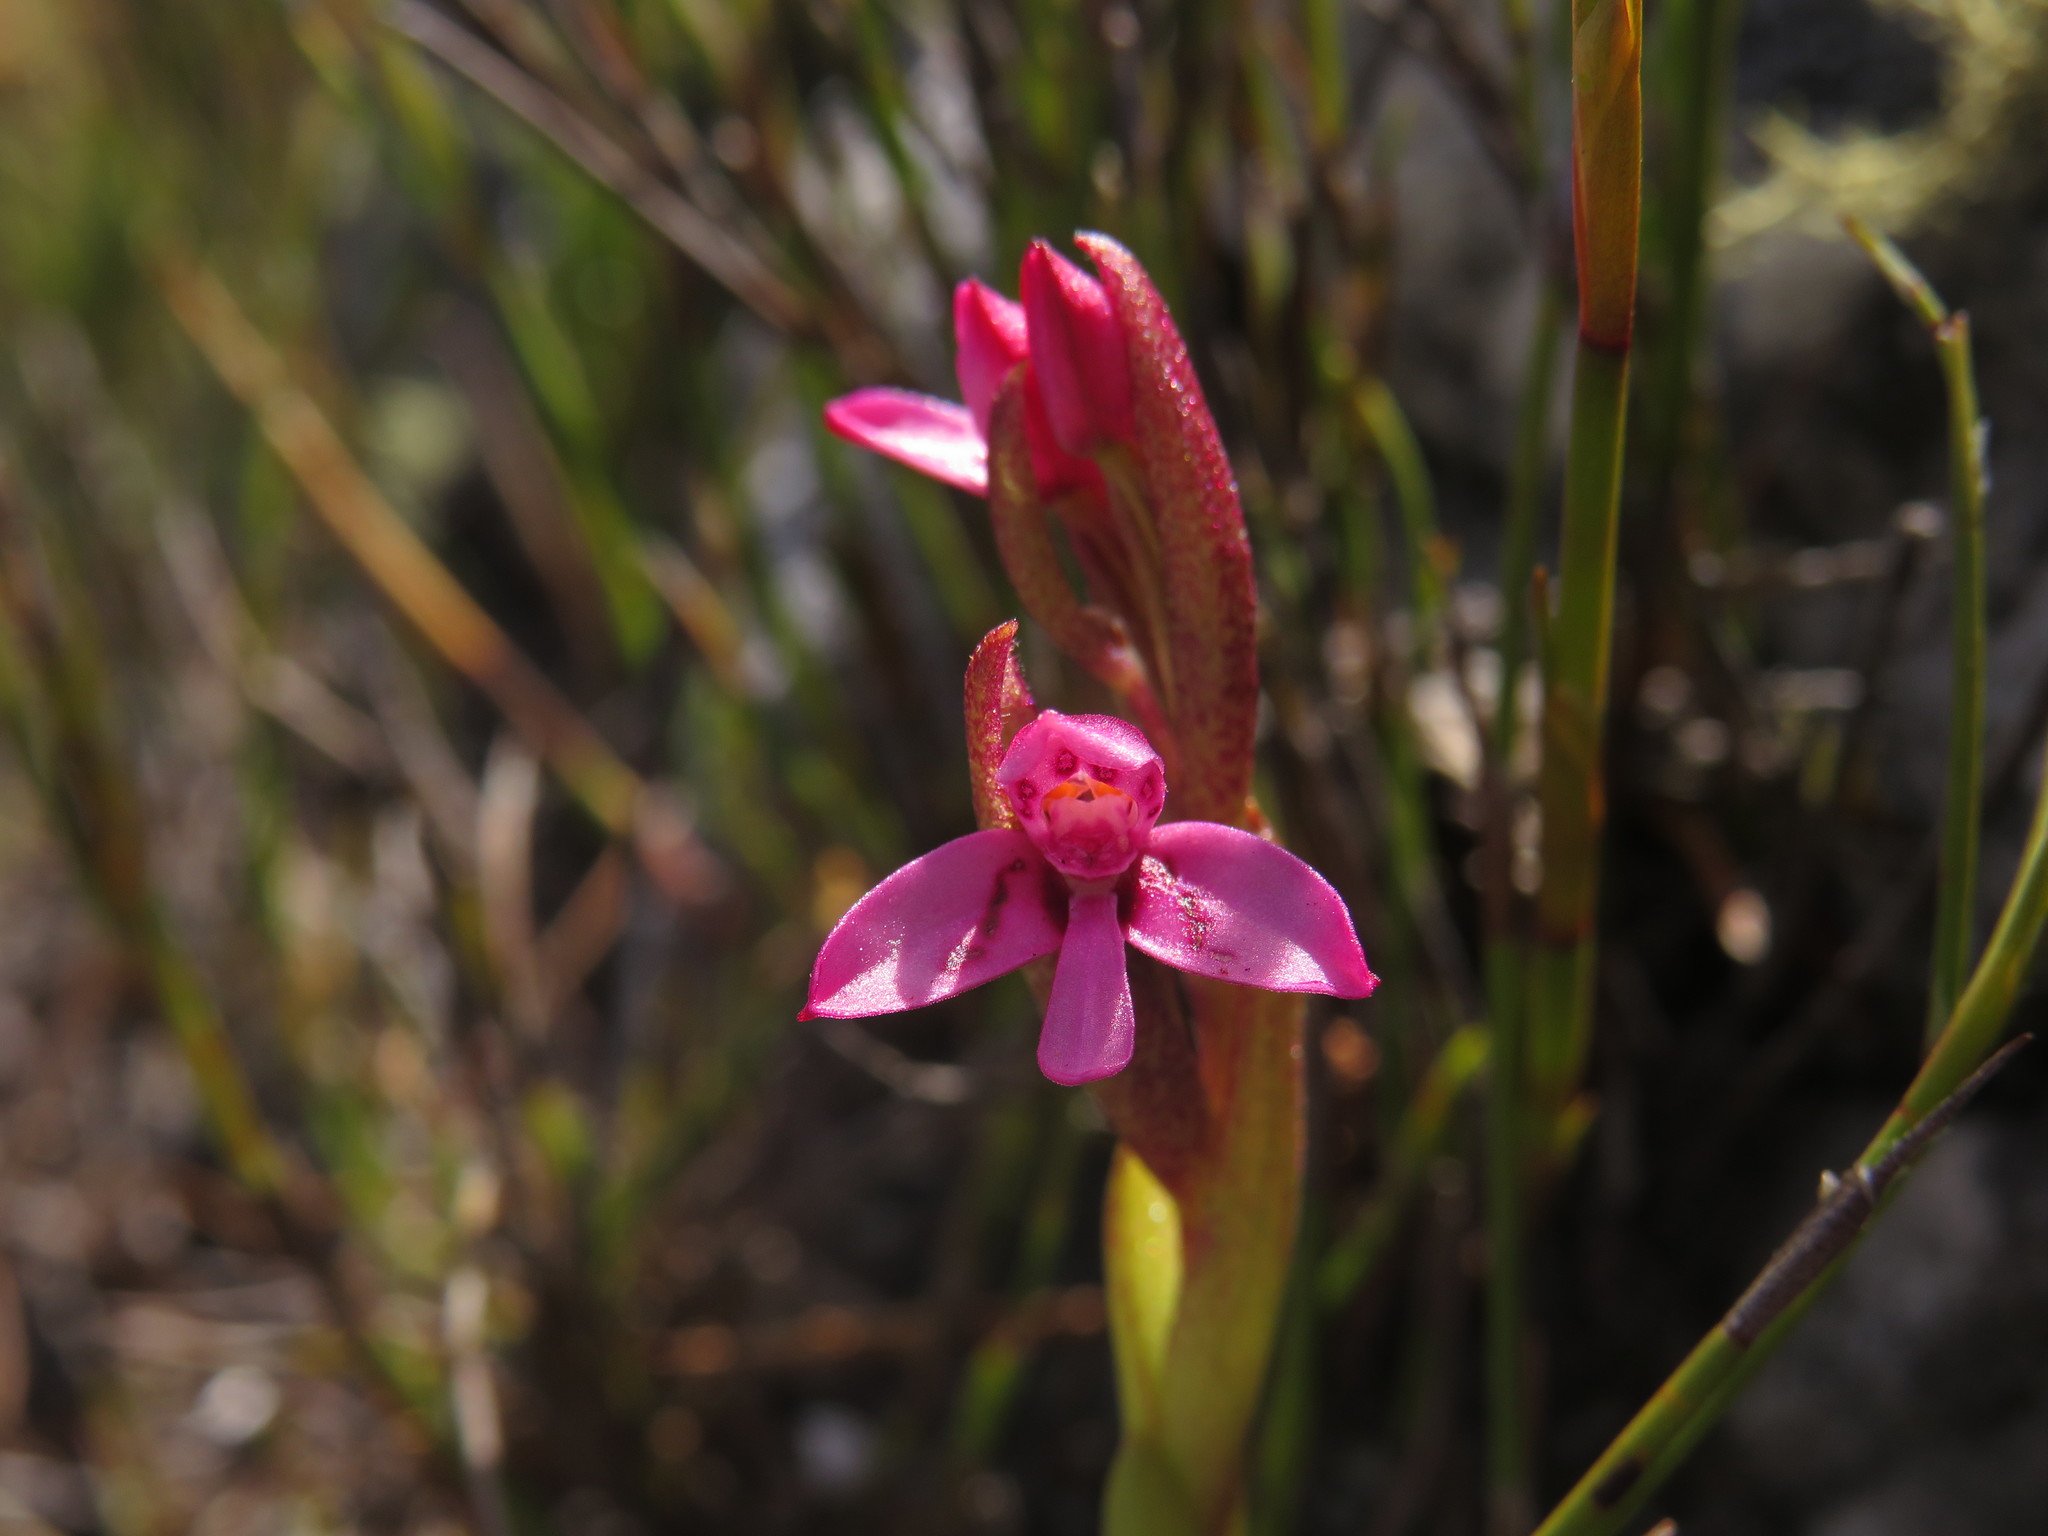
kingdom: Plantae
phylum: Tracheophyta
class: Liliopsida
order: Asparagales
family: Orchidaceae
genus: Disa
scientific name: Disa vaginata
